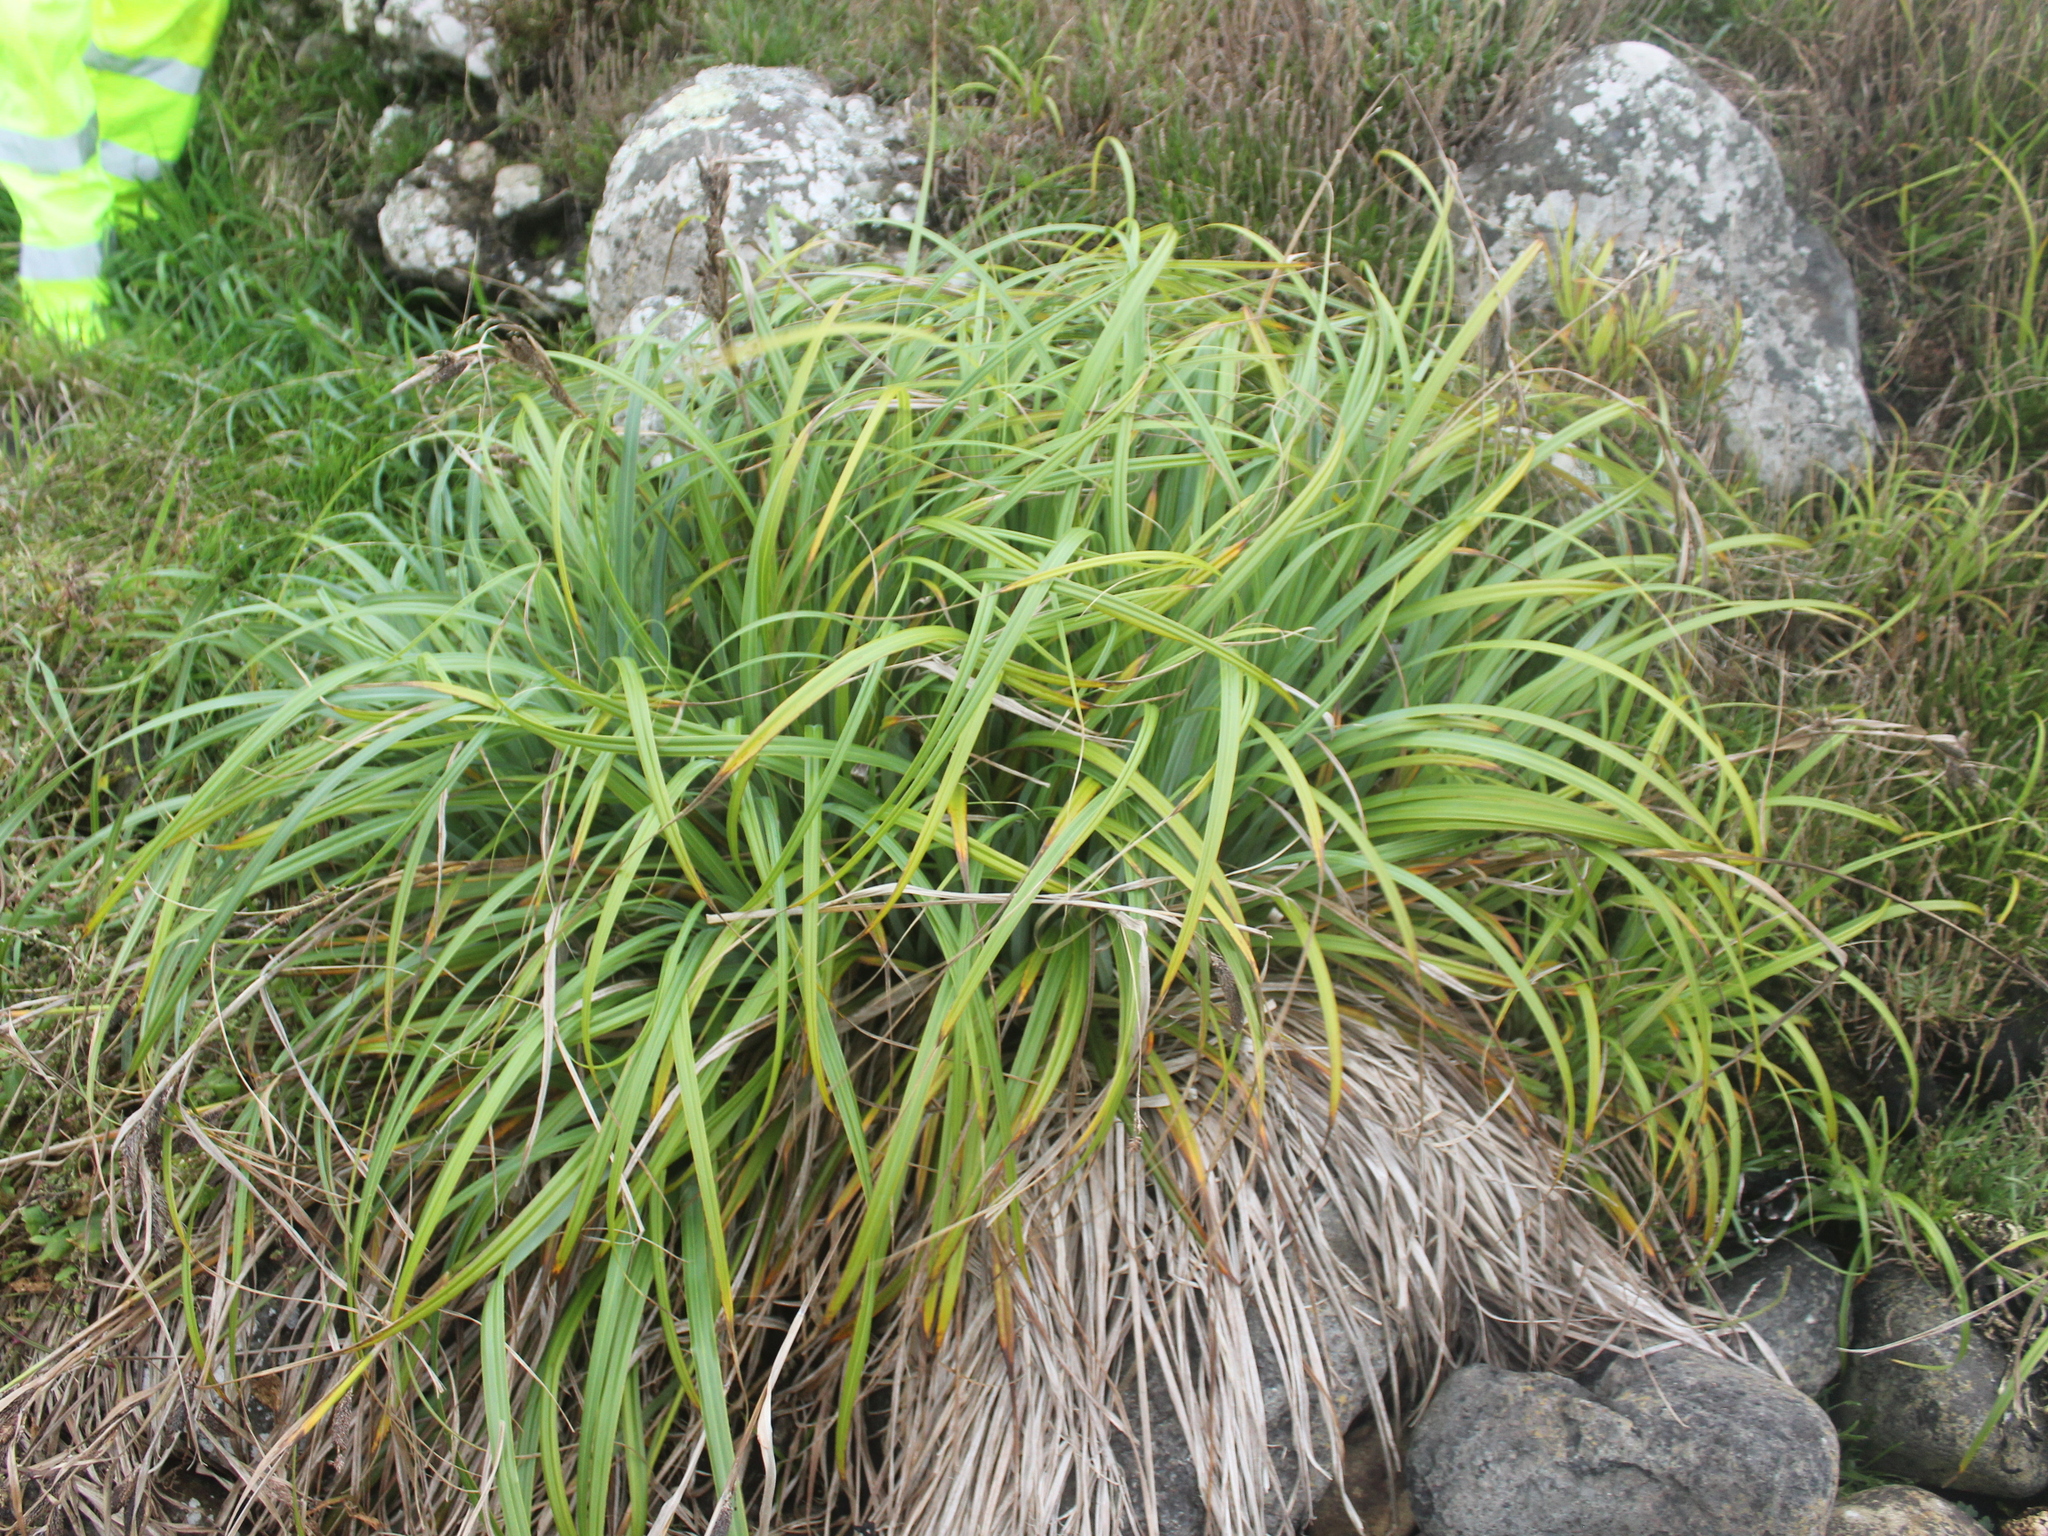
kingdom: Plantae
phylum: Tracheophyta
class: Liliopsida
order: Poales
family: Cyperaceae
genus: Carex
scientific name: Carex trifida
